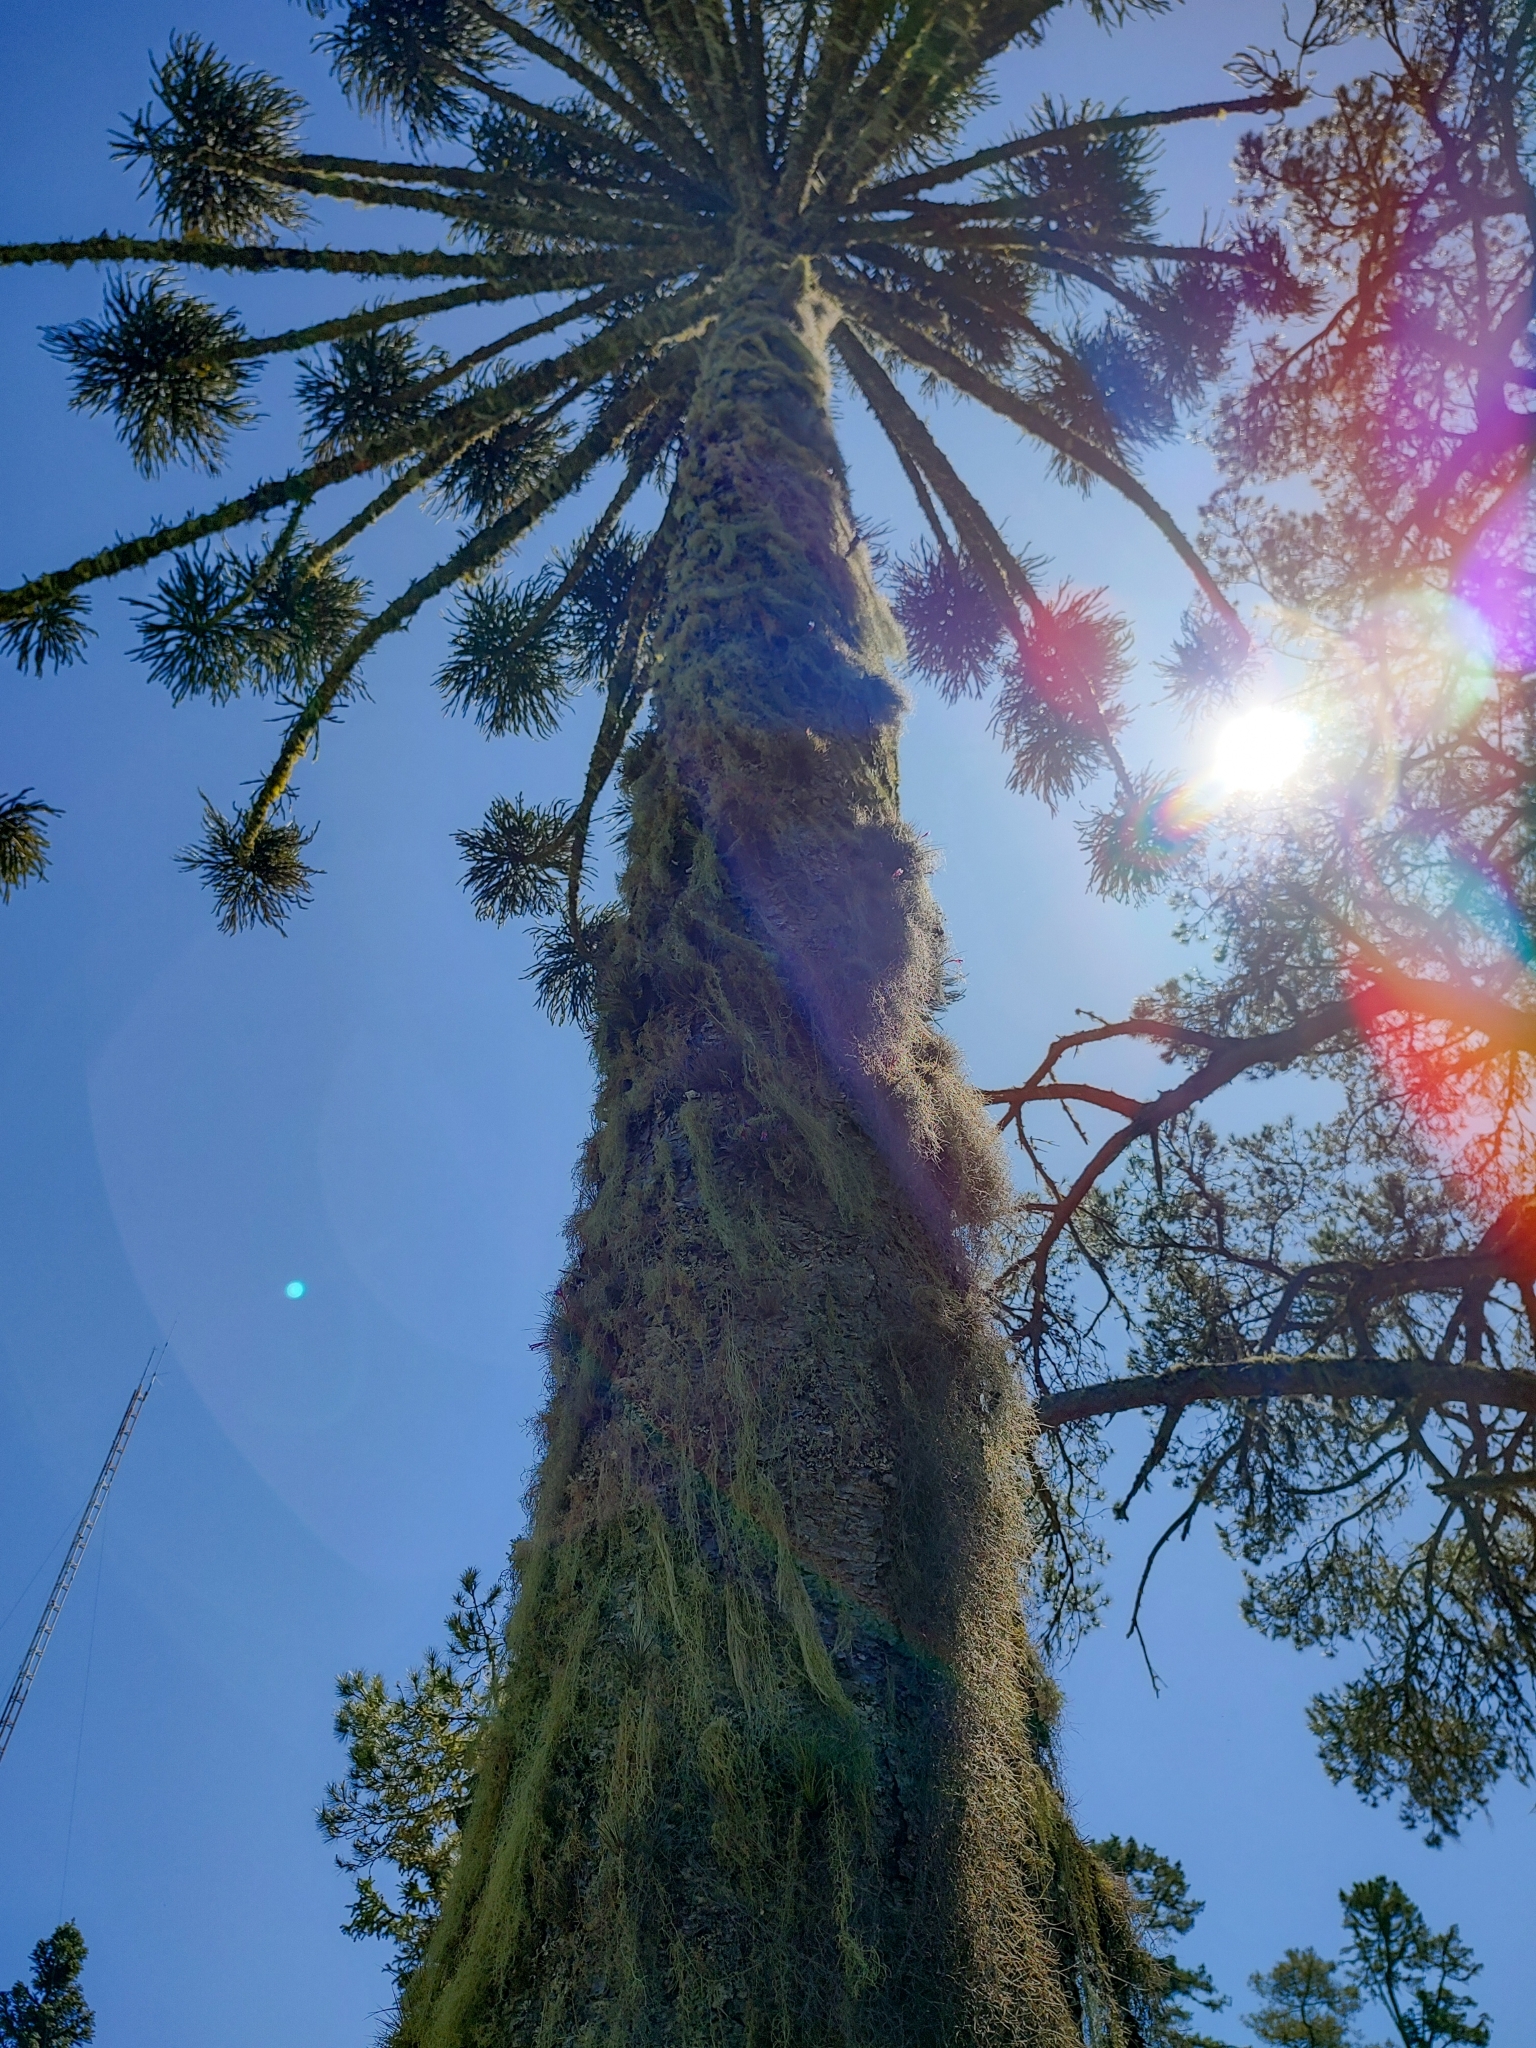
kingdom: Plantae
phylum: Tracheophyta
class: Pinopsida
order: Pinales
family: Araucariaceae
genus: Araucaria
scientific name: Araucaria angustifolia
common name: Candelabra tree
